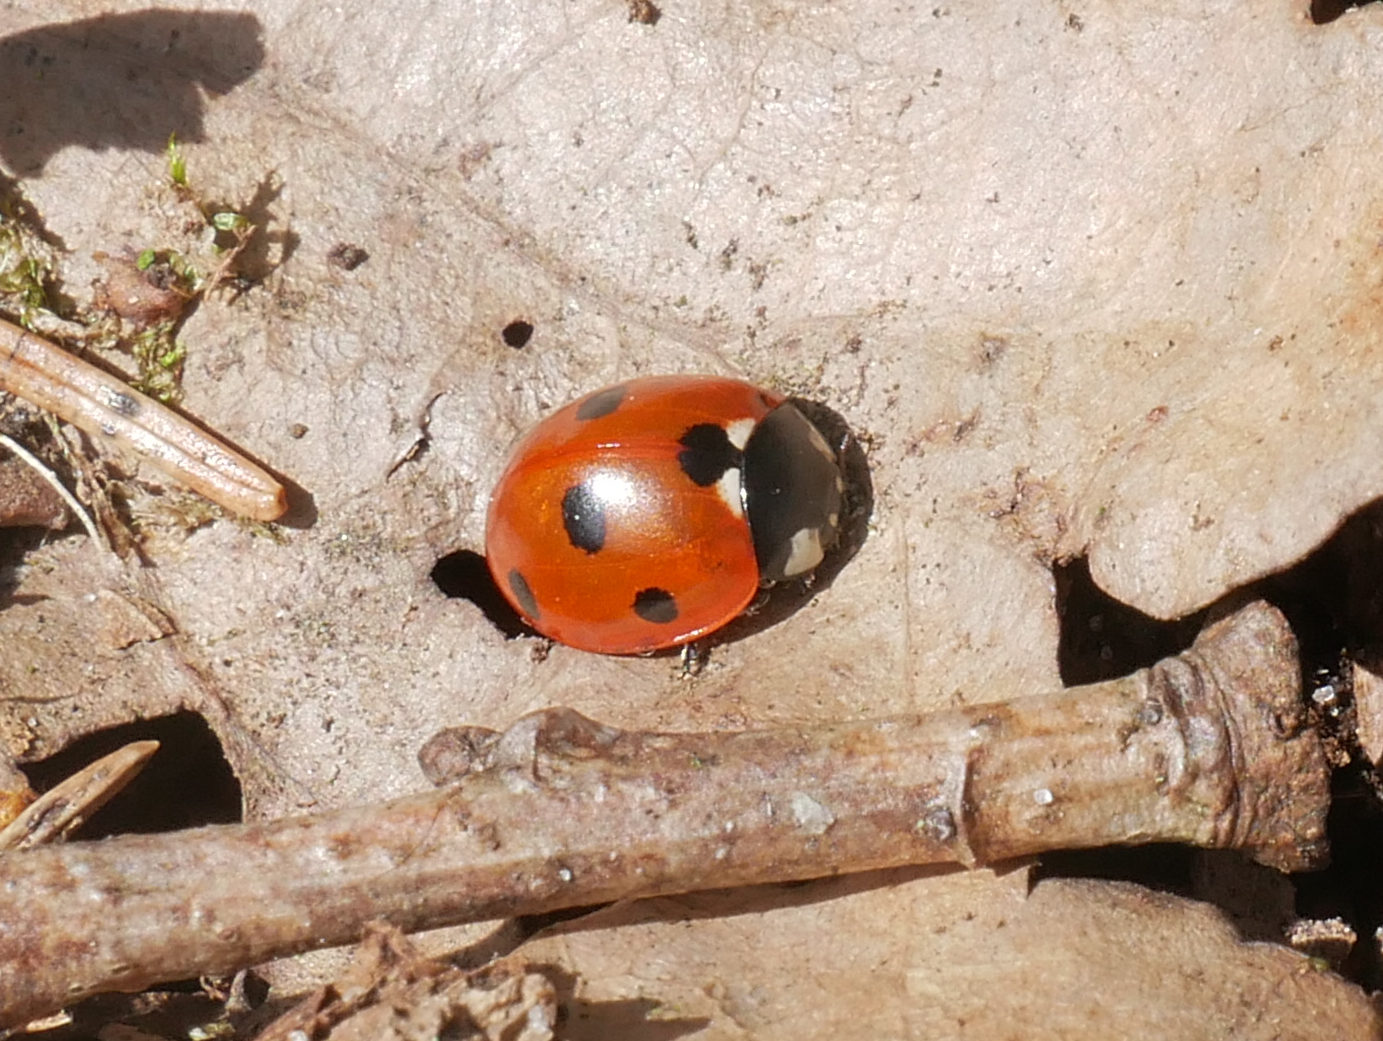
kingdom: Animalia
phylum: Arthropoda
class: Insecta
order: Coleoptera
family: Coccinellidae
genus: Coccinella
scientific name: Coccinella septempunctata
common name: Sevenspotted lady beetle
